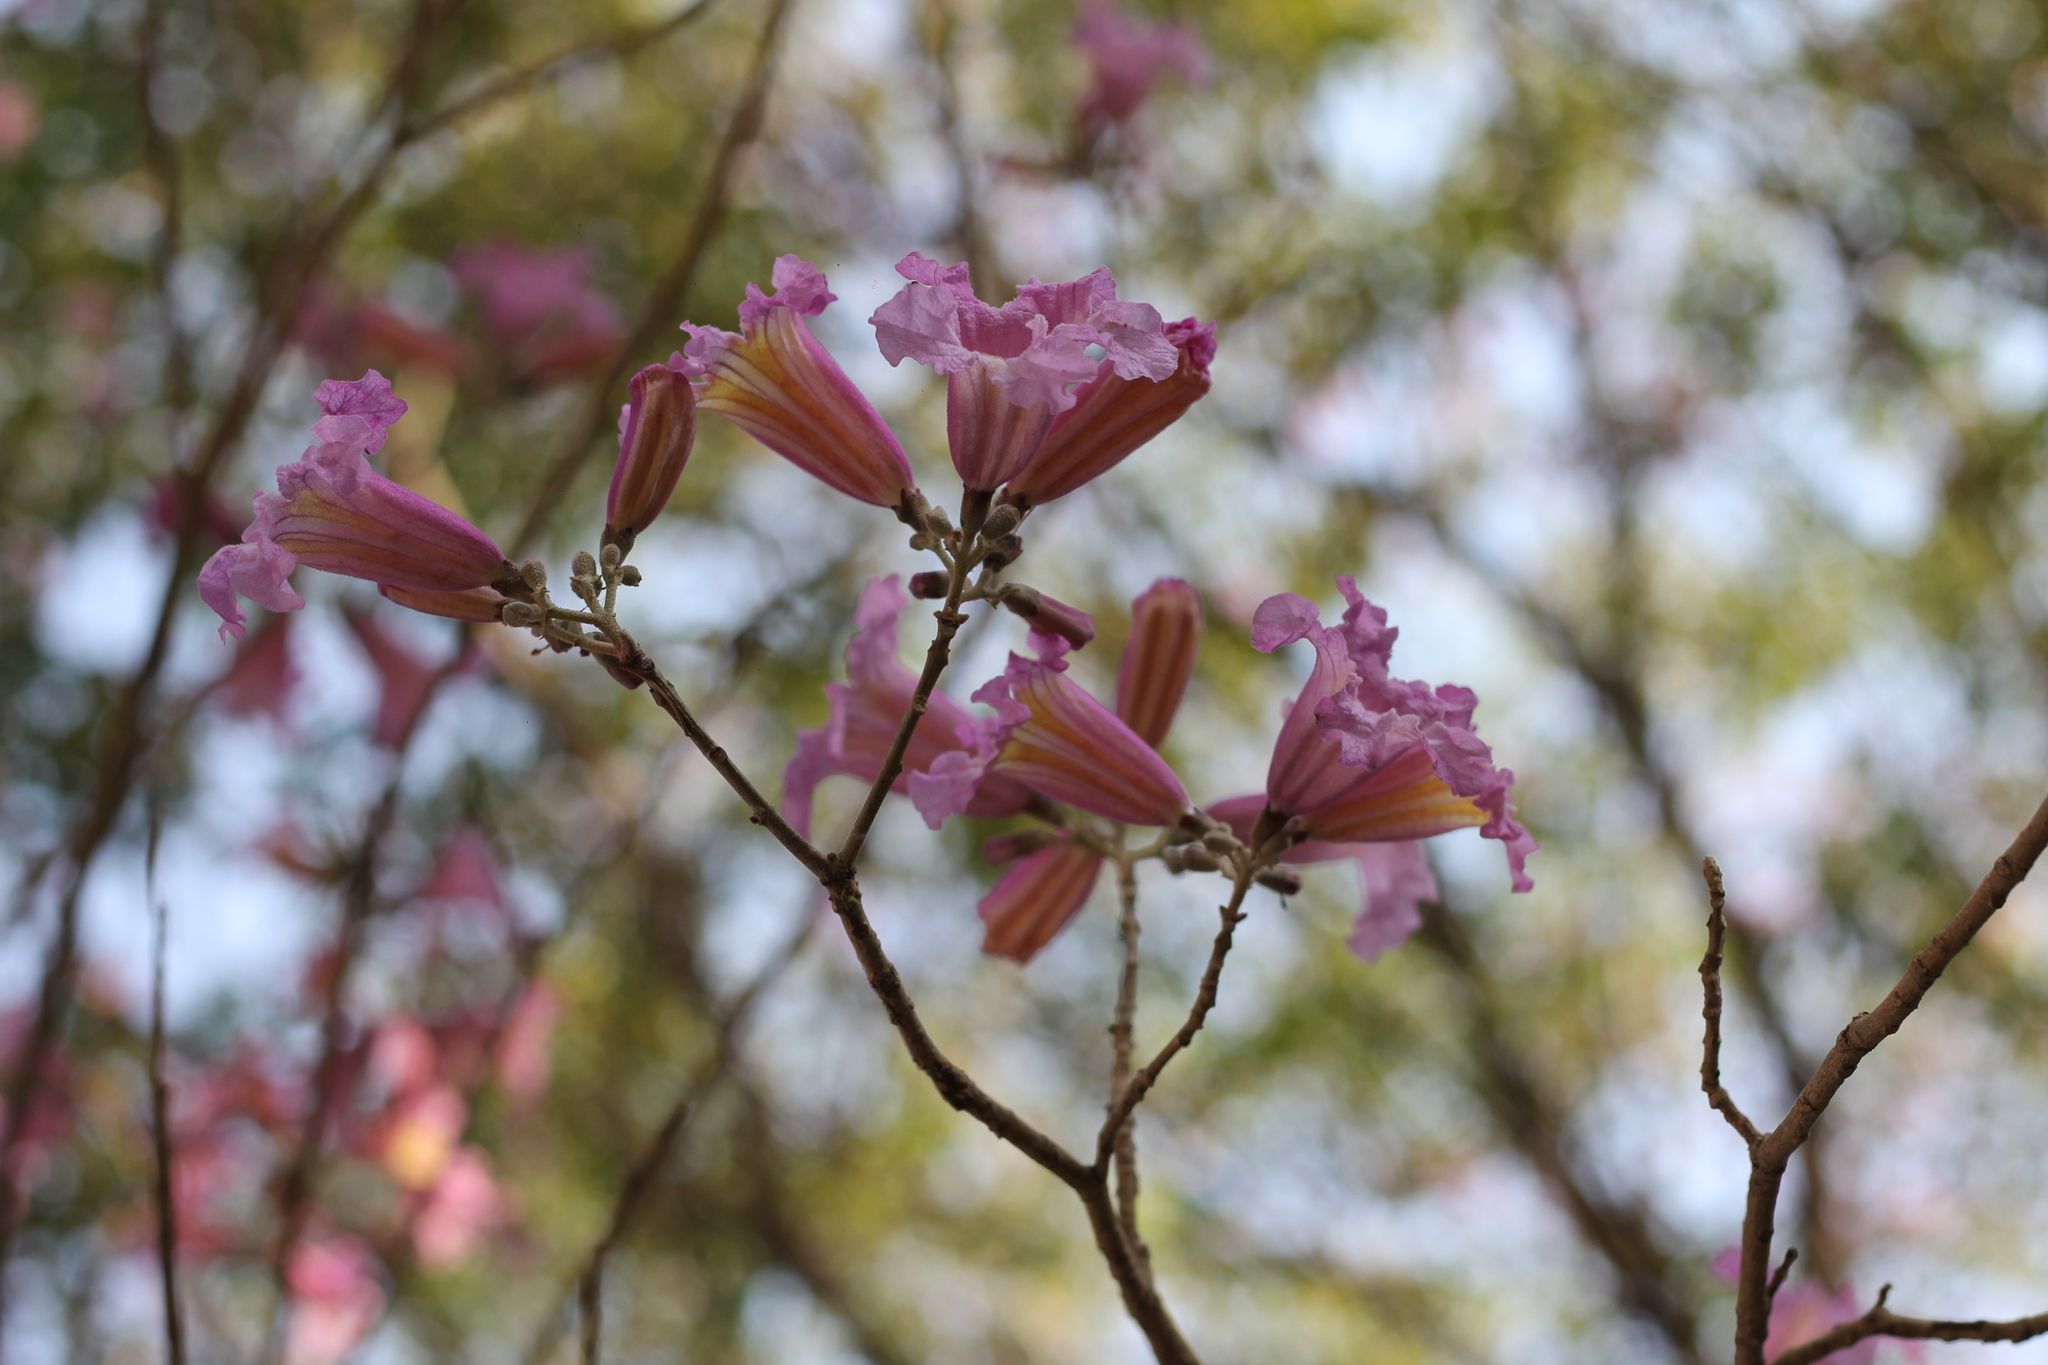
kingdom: Plantae
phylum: Tracheophyta
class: Magnoliopsida
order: Lamiales
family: Bignoniaceae
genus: Handroanthus
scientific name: Handroanthus heptaphyllus
